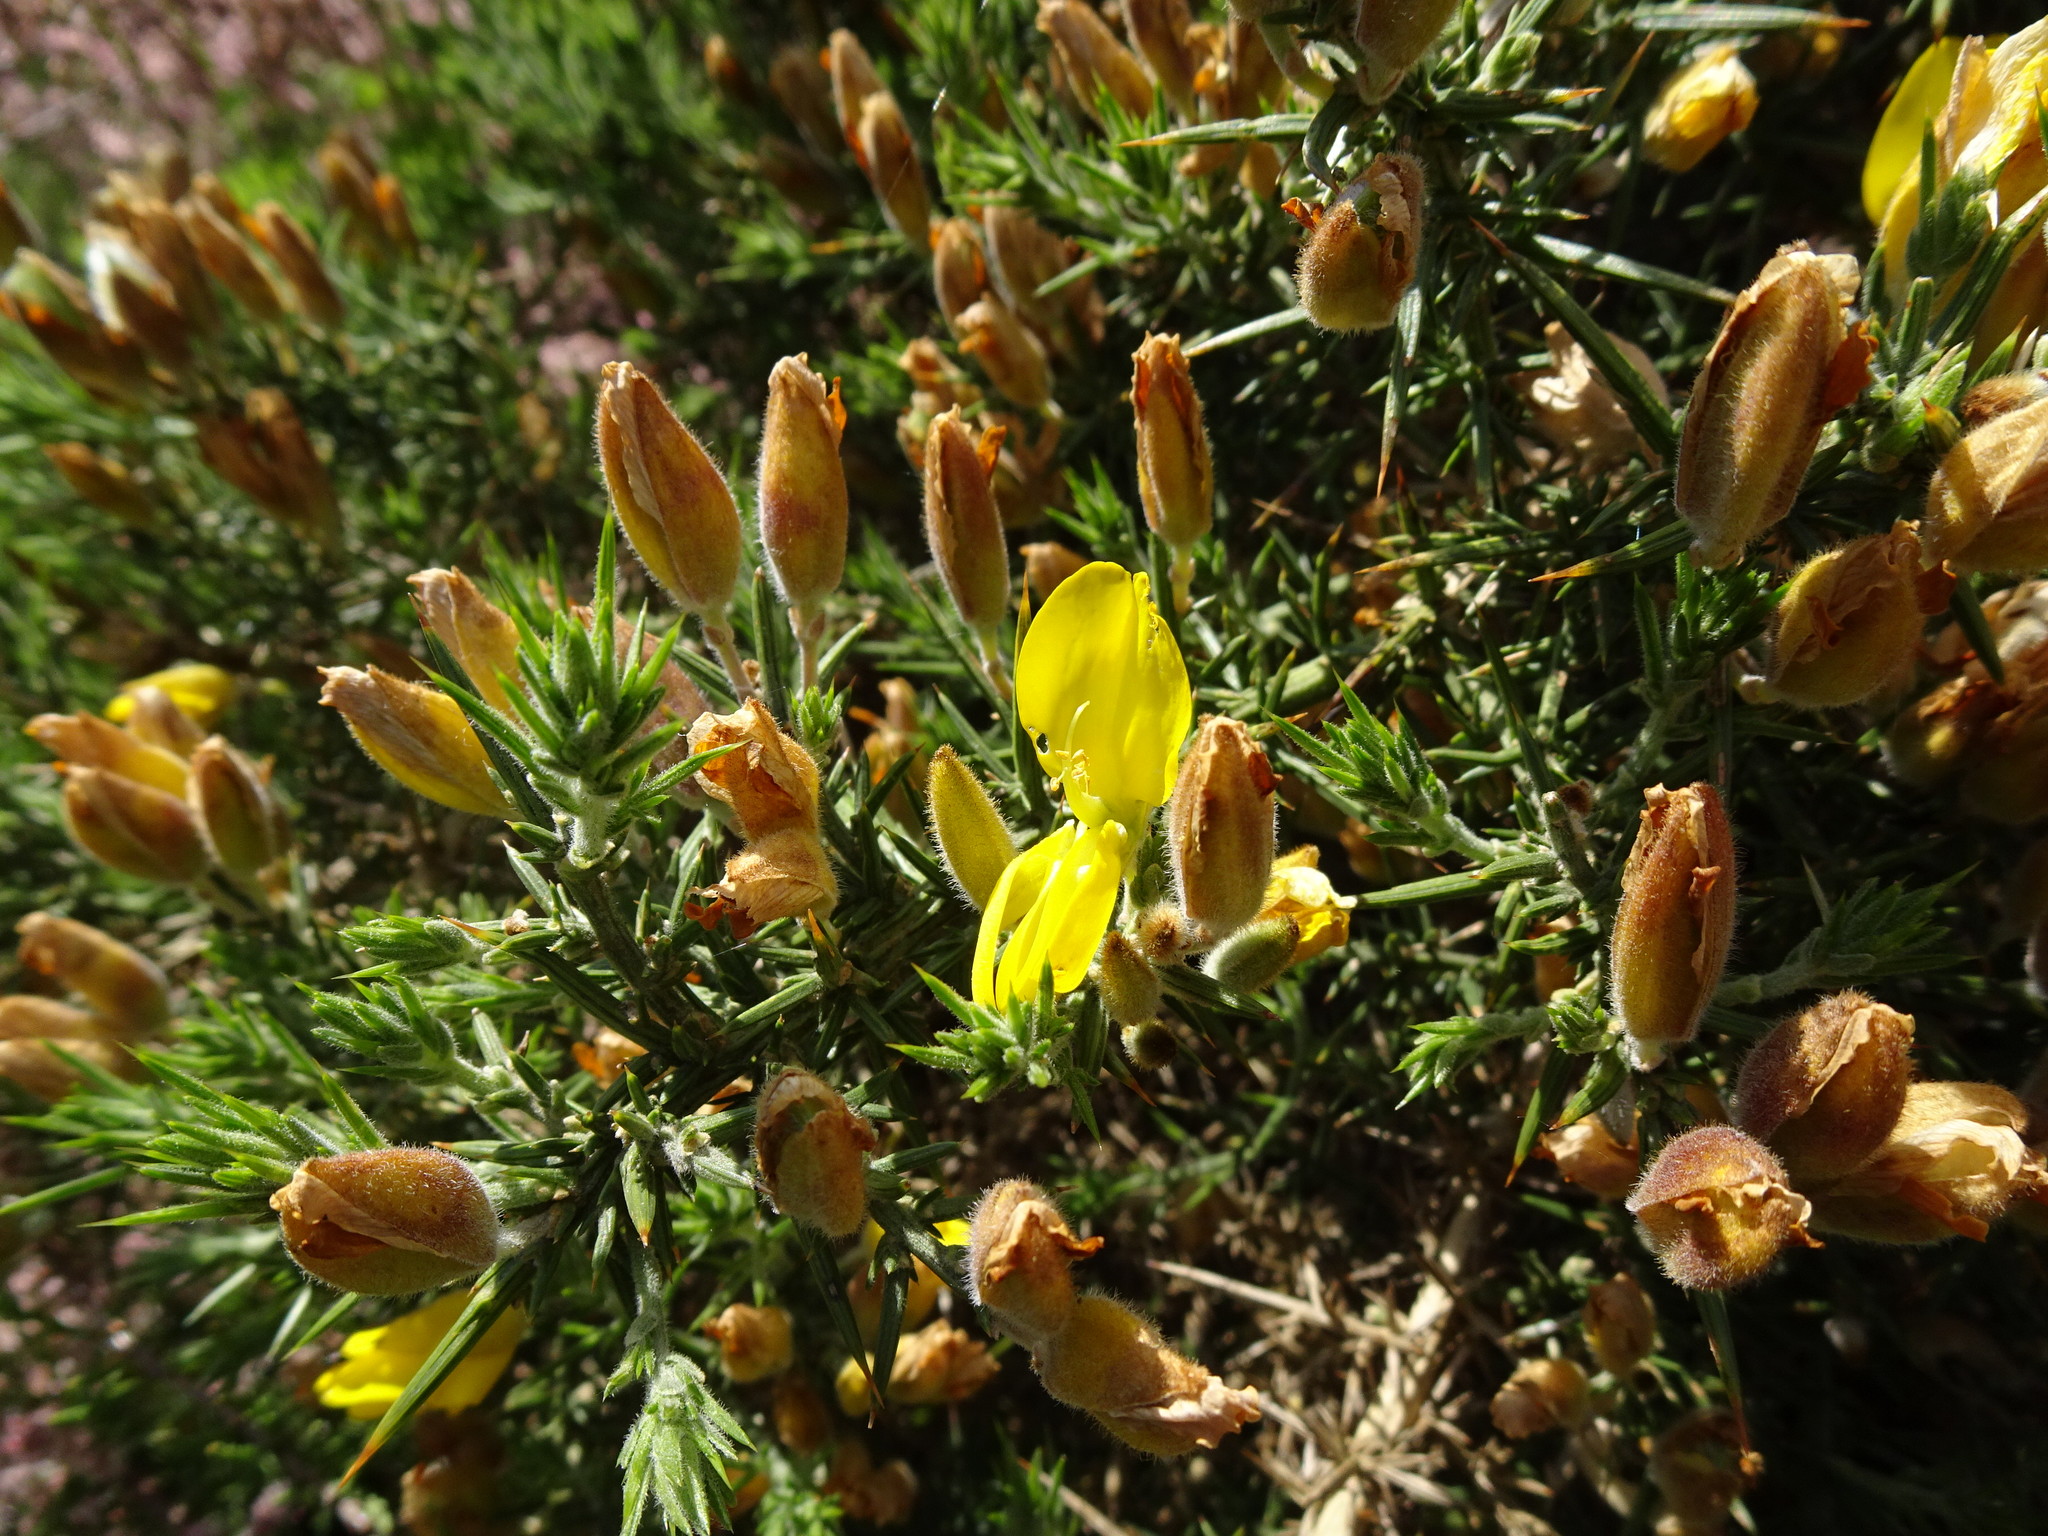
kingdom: Plantae
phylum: Tracheophyta
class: Magnoliopsida
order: Fabales
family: Fabaceae
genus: Ulex
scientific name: Ulex europaeus
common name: Common gorse
